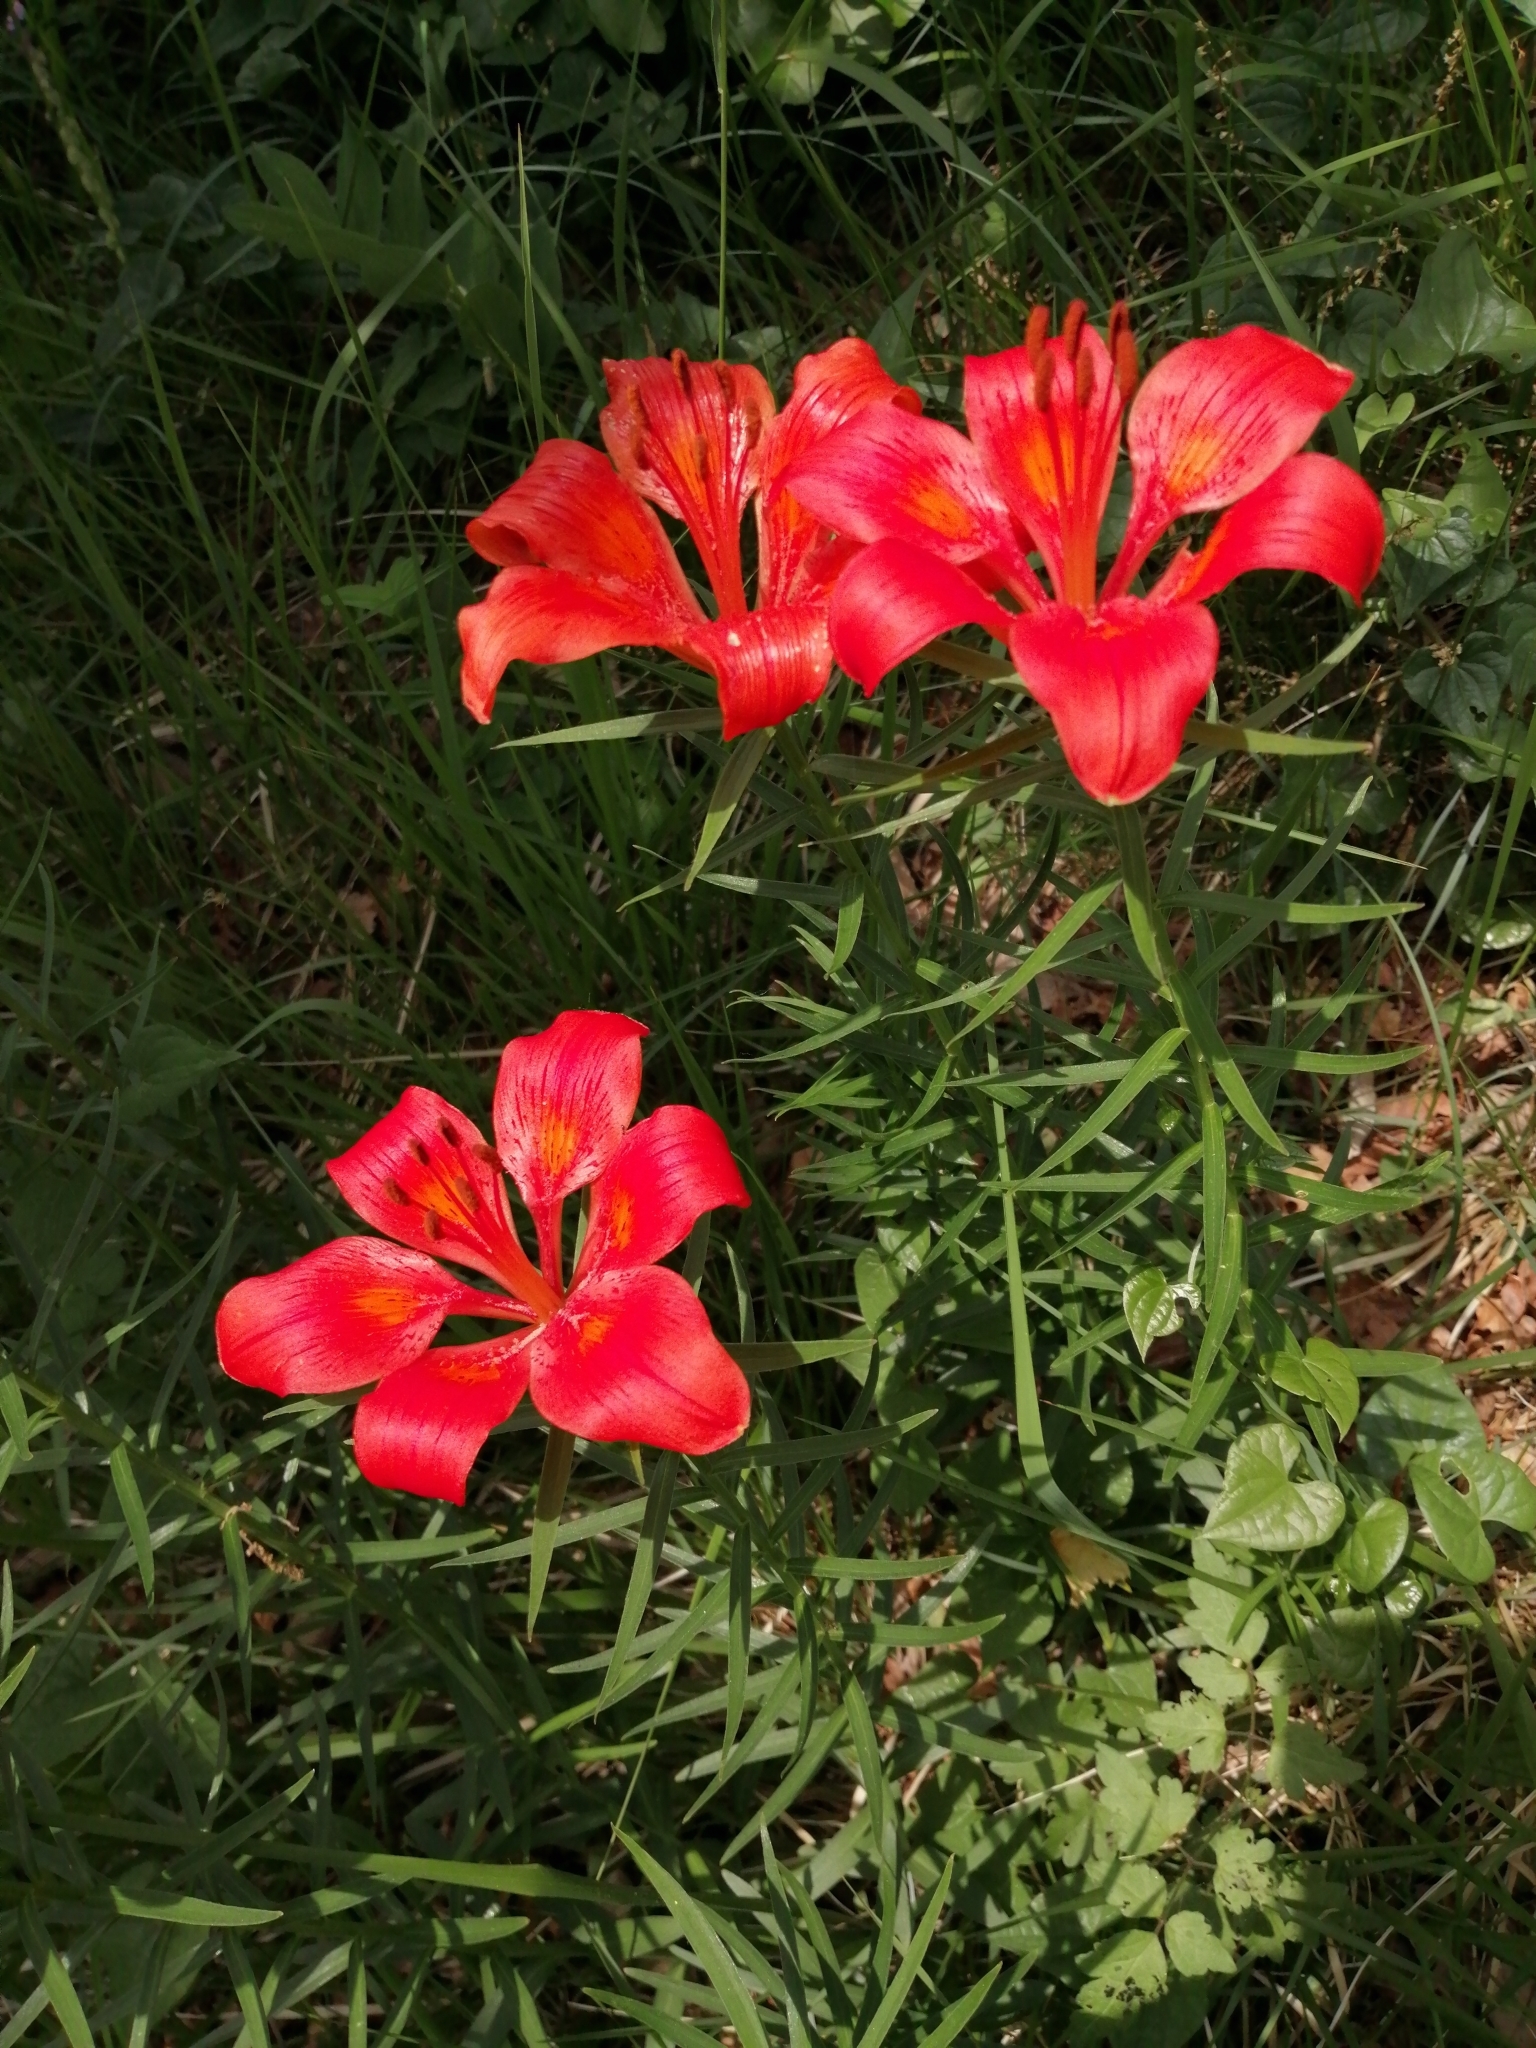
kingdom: Plantae
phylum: Tracheophyta
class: Liliopsida
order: Liliales
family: Liliaceae
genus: Lilium
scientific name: Lilium bulbiferum
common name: Orange lily
